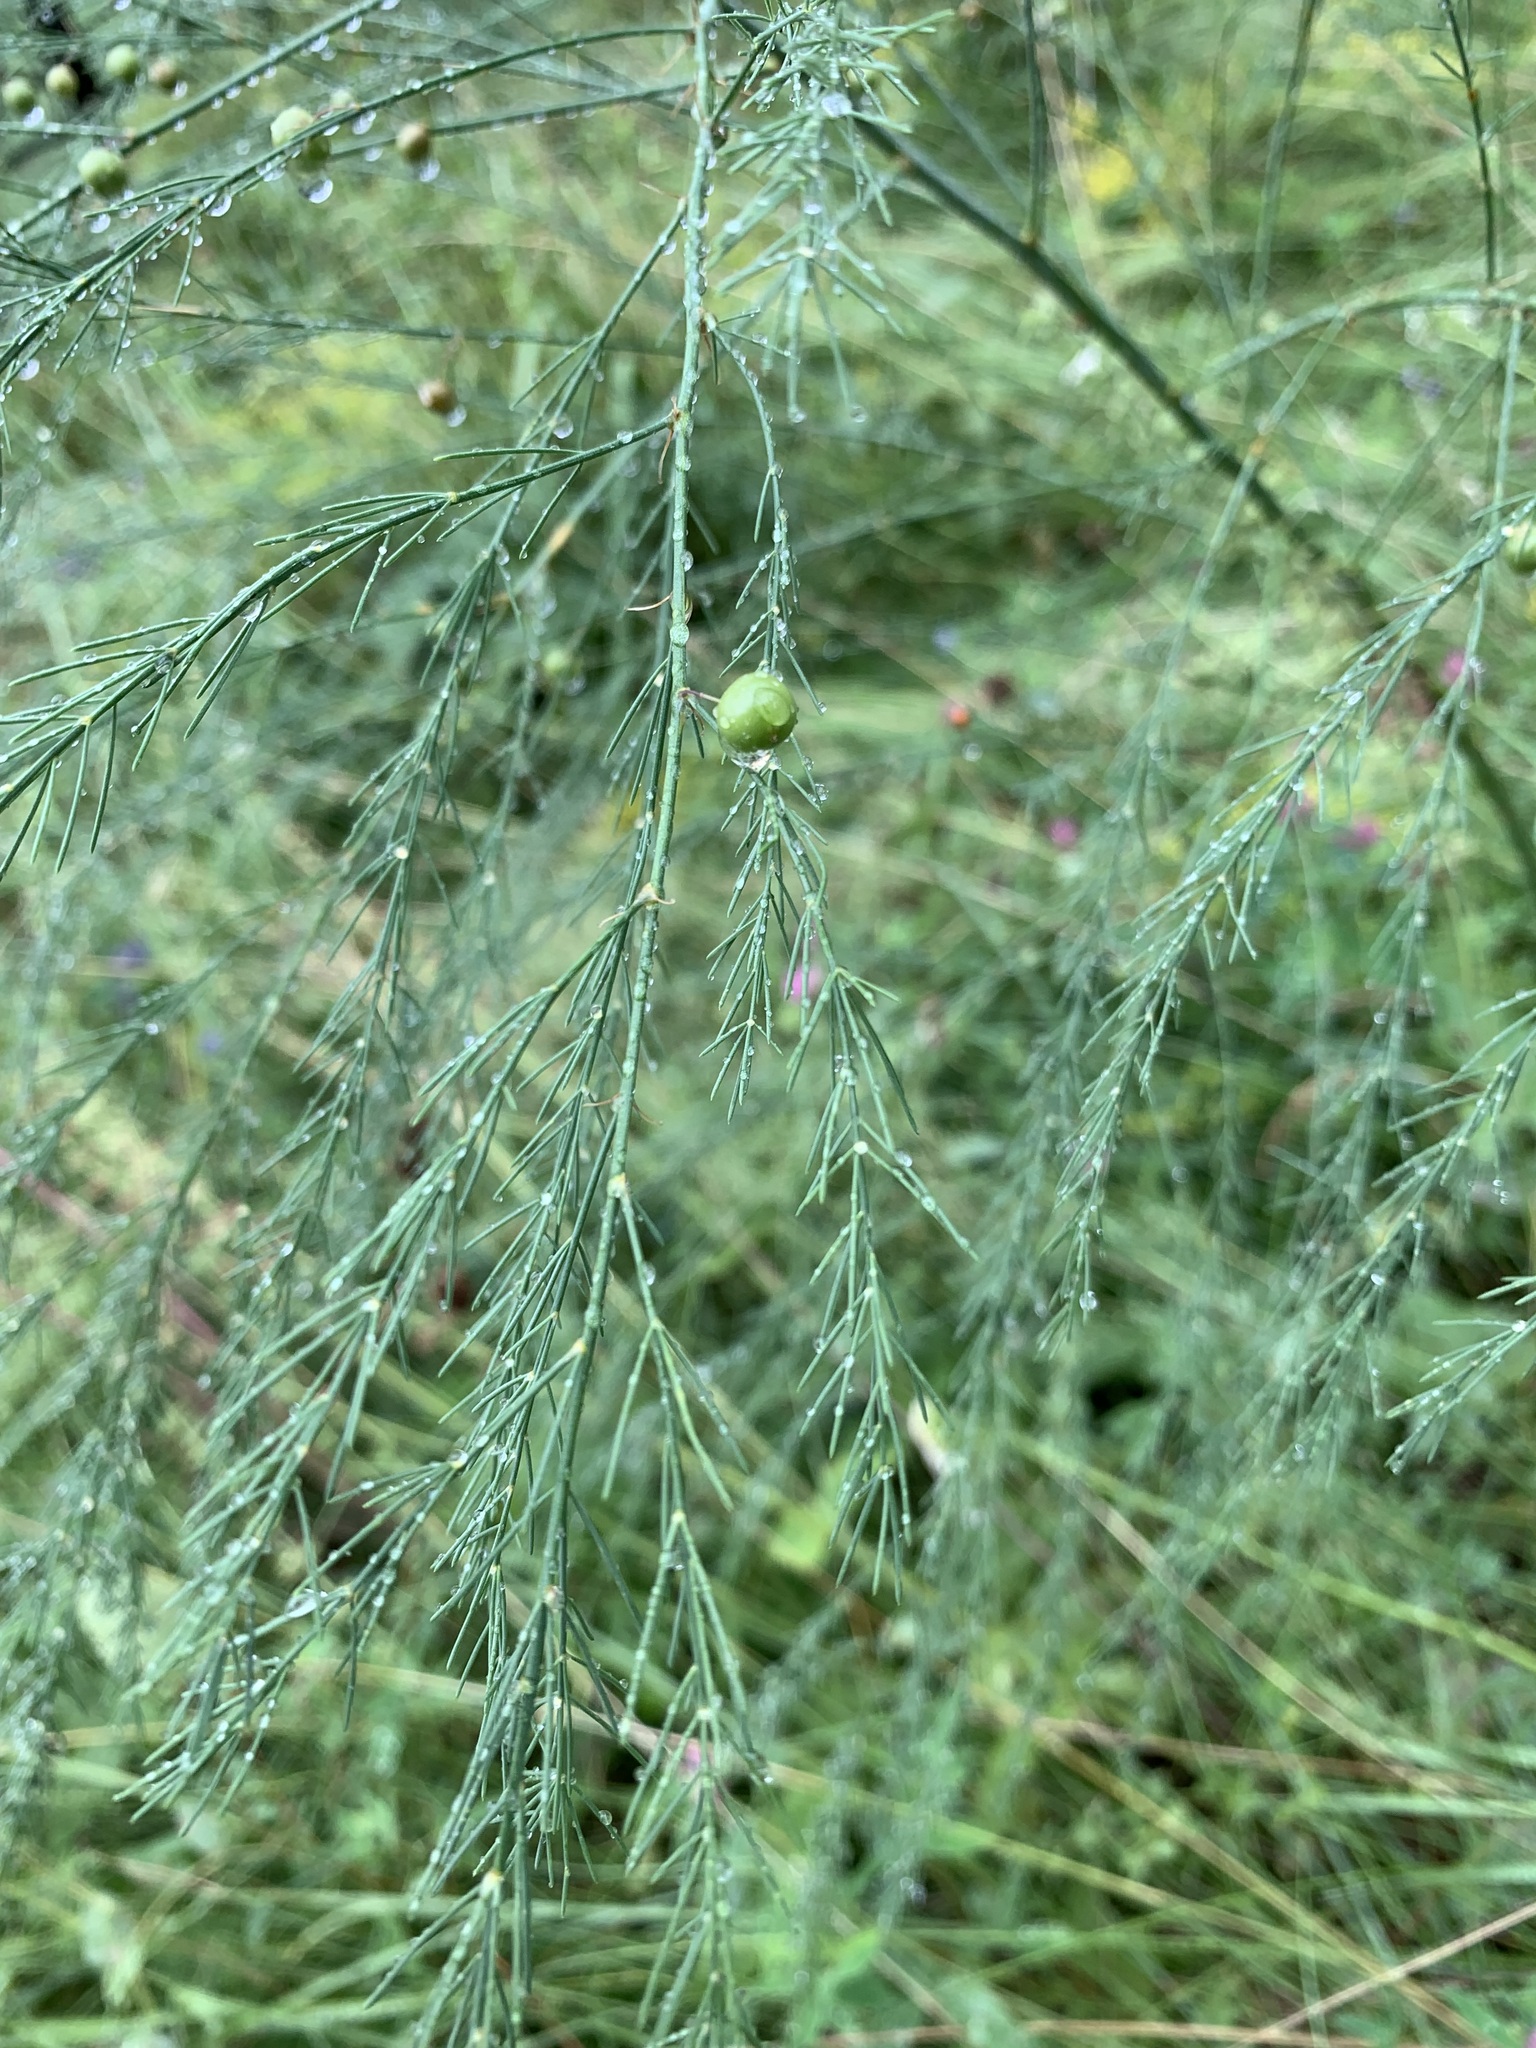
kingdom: Plantae
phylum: Tracheophyta
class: Liliopsida
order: Asparagales
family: Asparagaceae
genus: Asparagus
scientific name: Asparagus officinalis
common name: Garden asparagus
